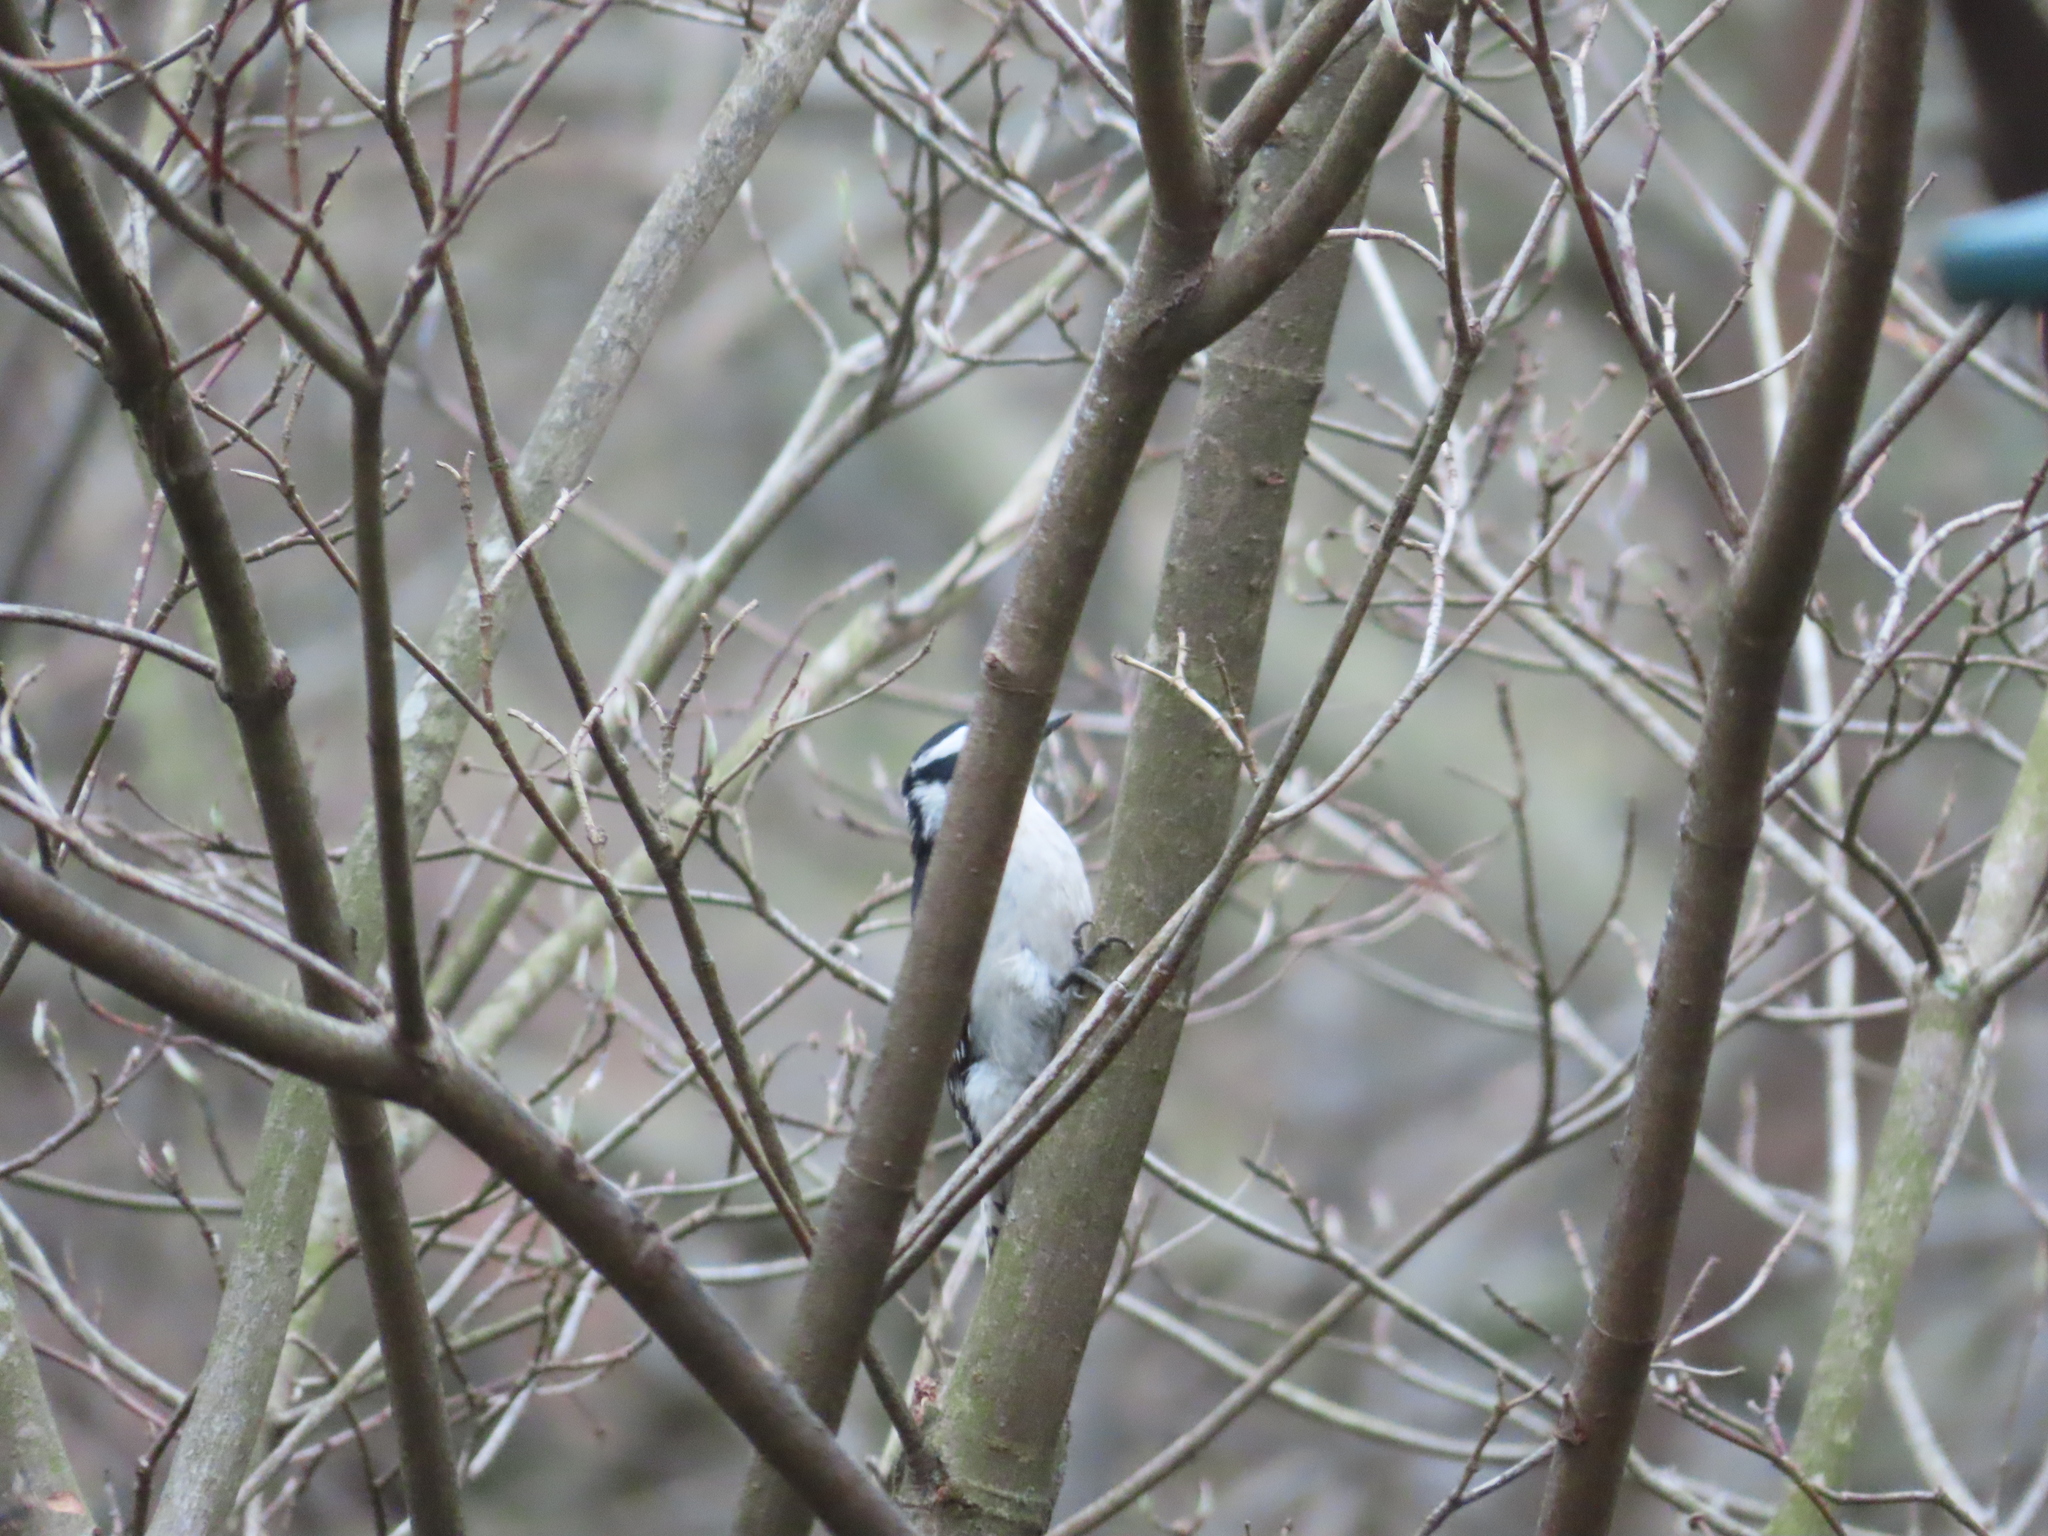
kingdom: Animalia
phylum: Chordata
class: Aves
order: Piciformes
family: Picidae
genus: Dryobates
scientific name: Dryobates pubescens
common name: Downy woodpecker
